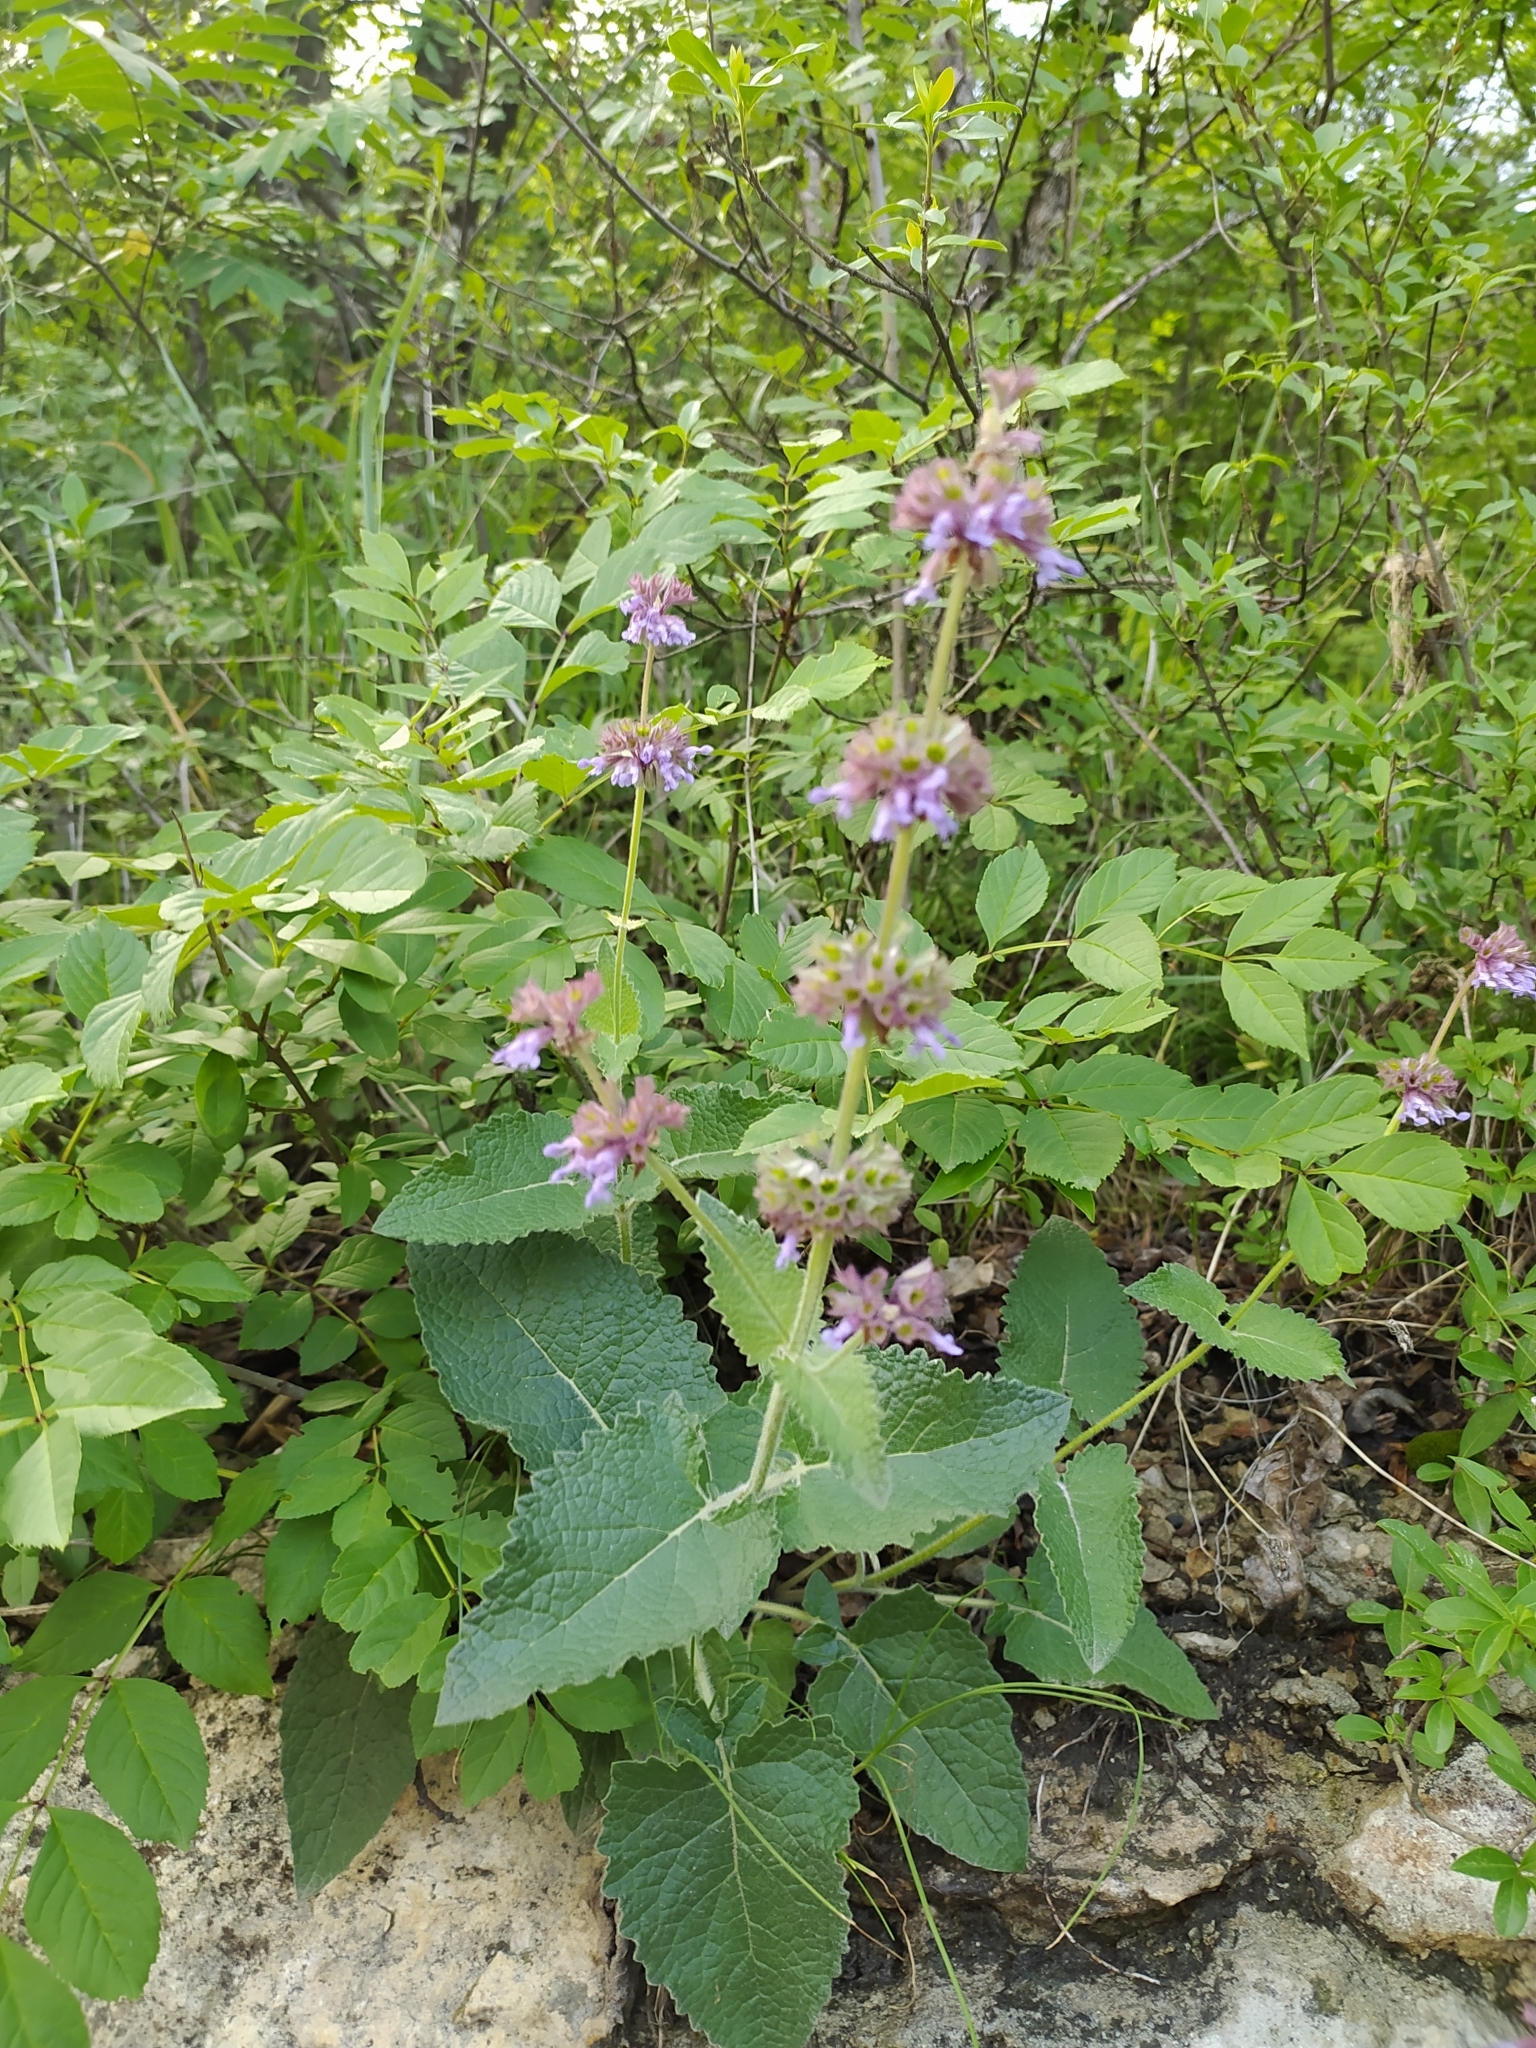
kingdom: Plantae
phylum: Tracheophyta
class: Magnoliopsida
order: Lamiales
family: Lamiaceae
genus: Salvia
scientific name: Salvia verticillata
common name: Whorled clary
